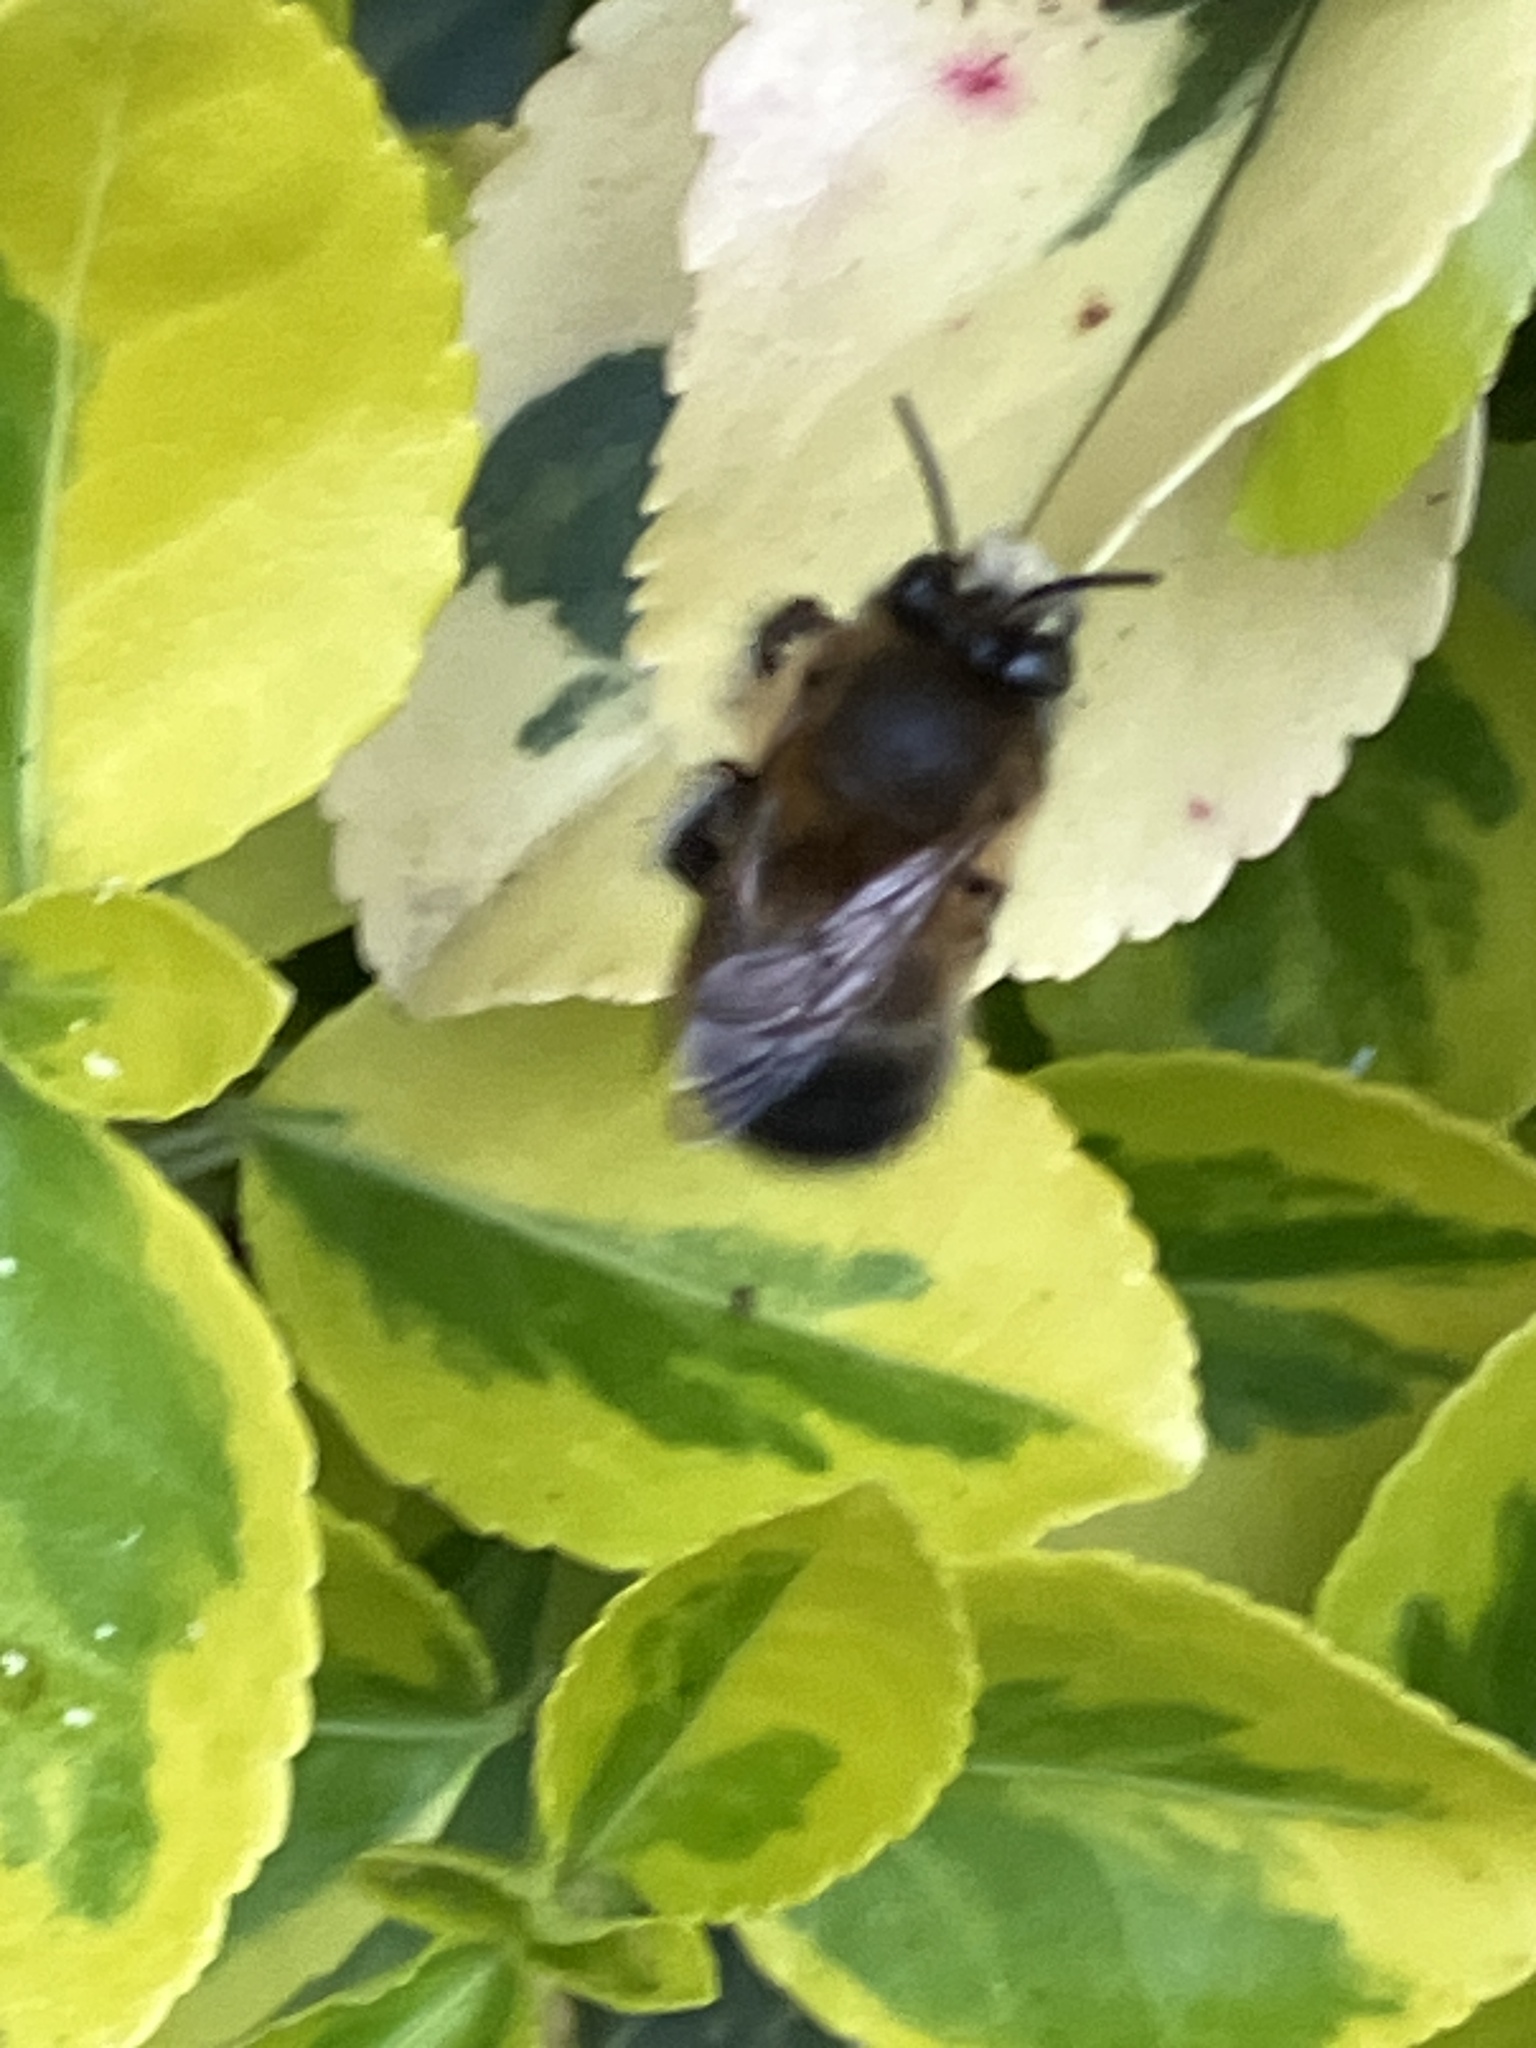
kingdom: Animalia
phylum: Arthropoda
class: Insecta
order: Hymenoptera
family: Apidae
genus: Anthophora
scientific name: Anthophora plumipes
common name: Hairy-footed flower bee
